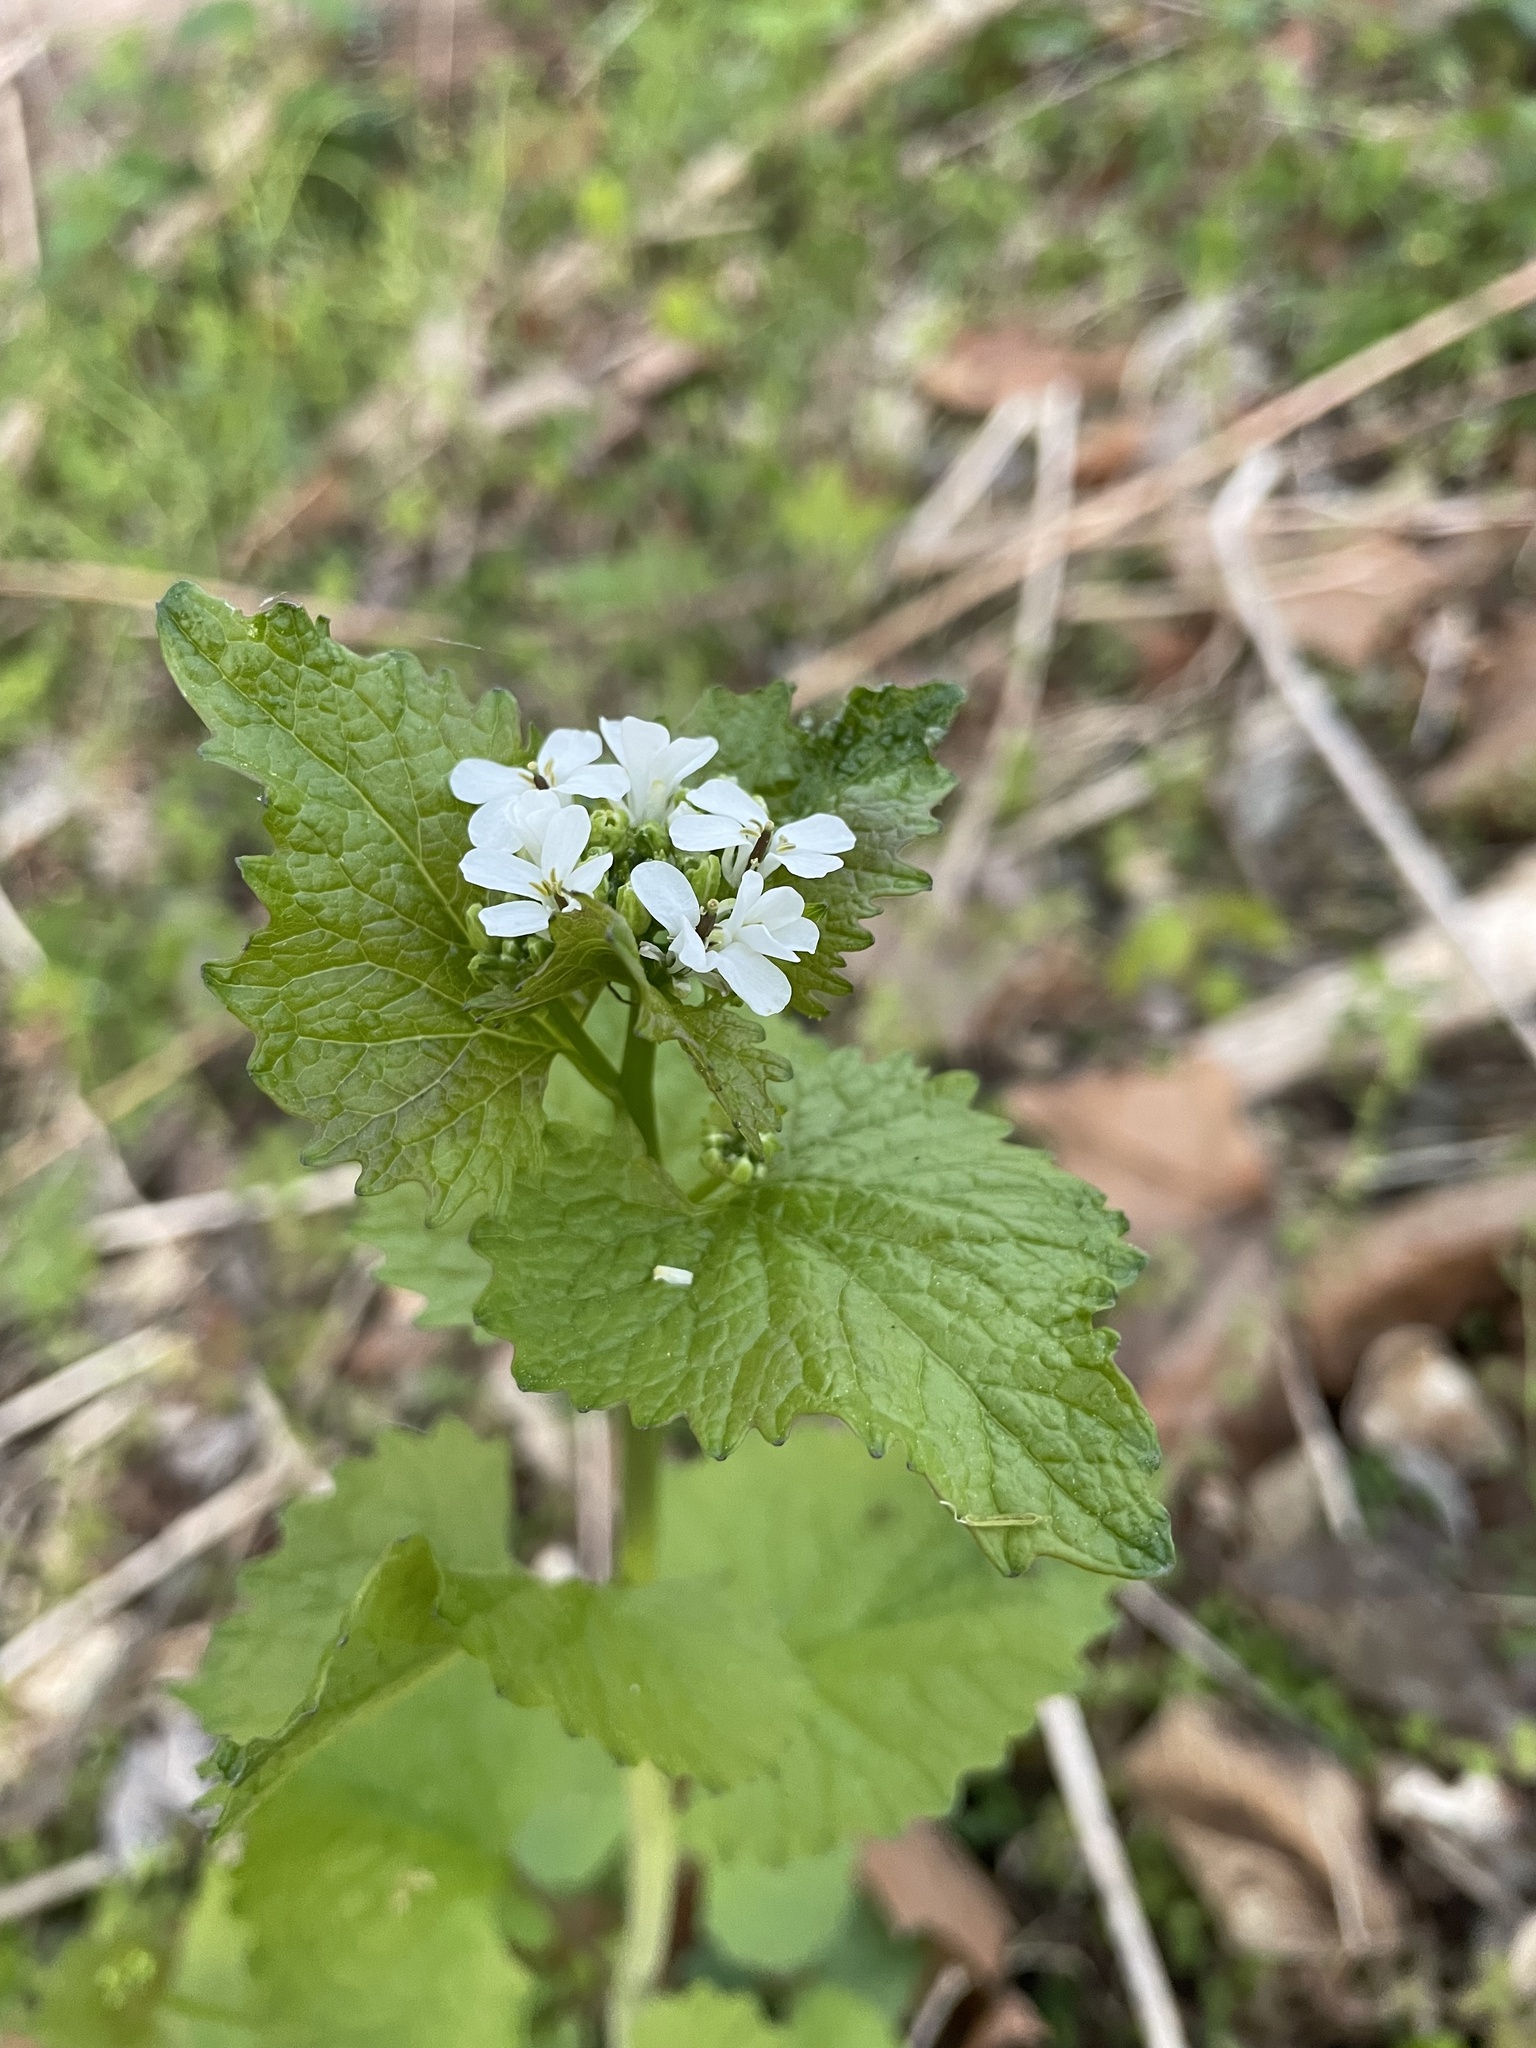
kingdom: Plantae
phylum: Tracheophyta
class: Magnoliopsida
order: Brassicales
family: Brassicaceae
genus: Alliaria
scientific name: Alliaria petiolata
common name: Garlic mustard
